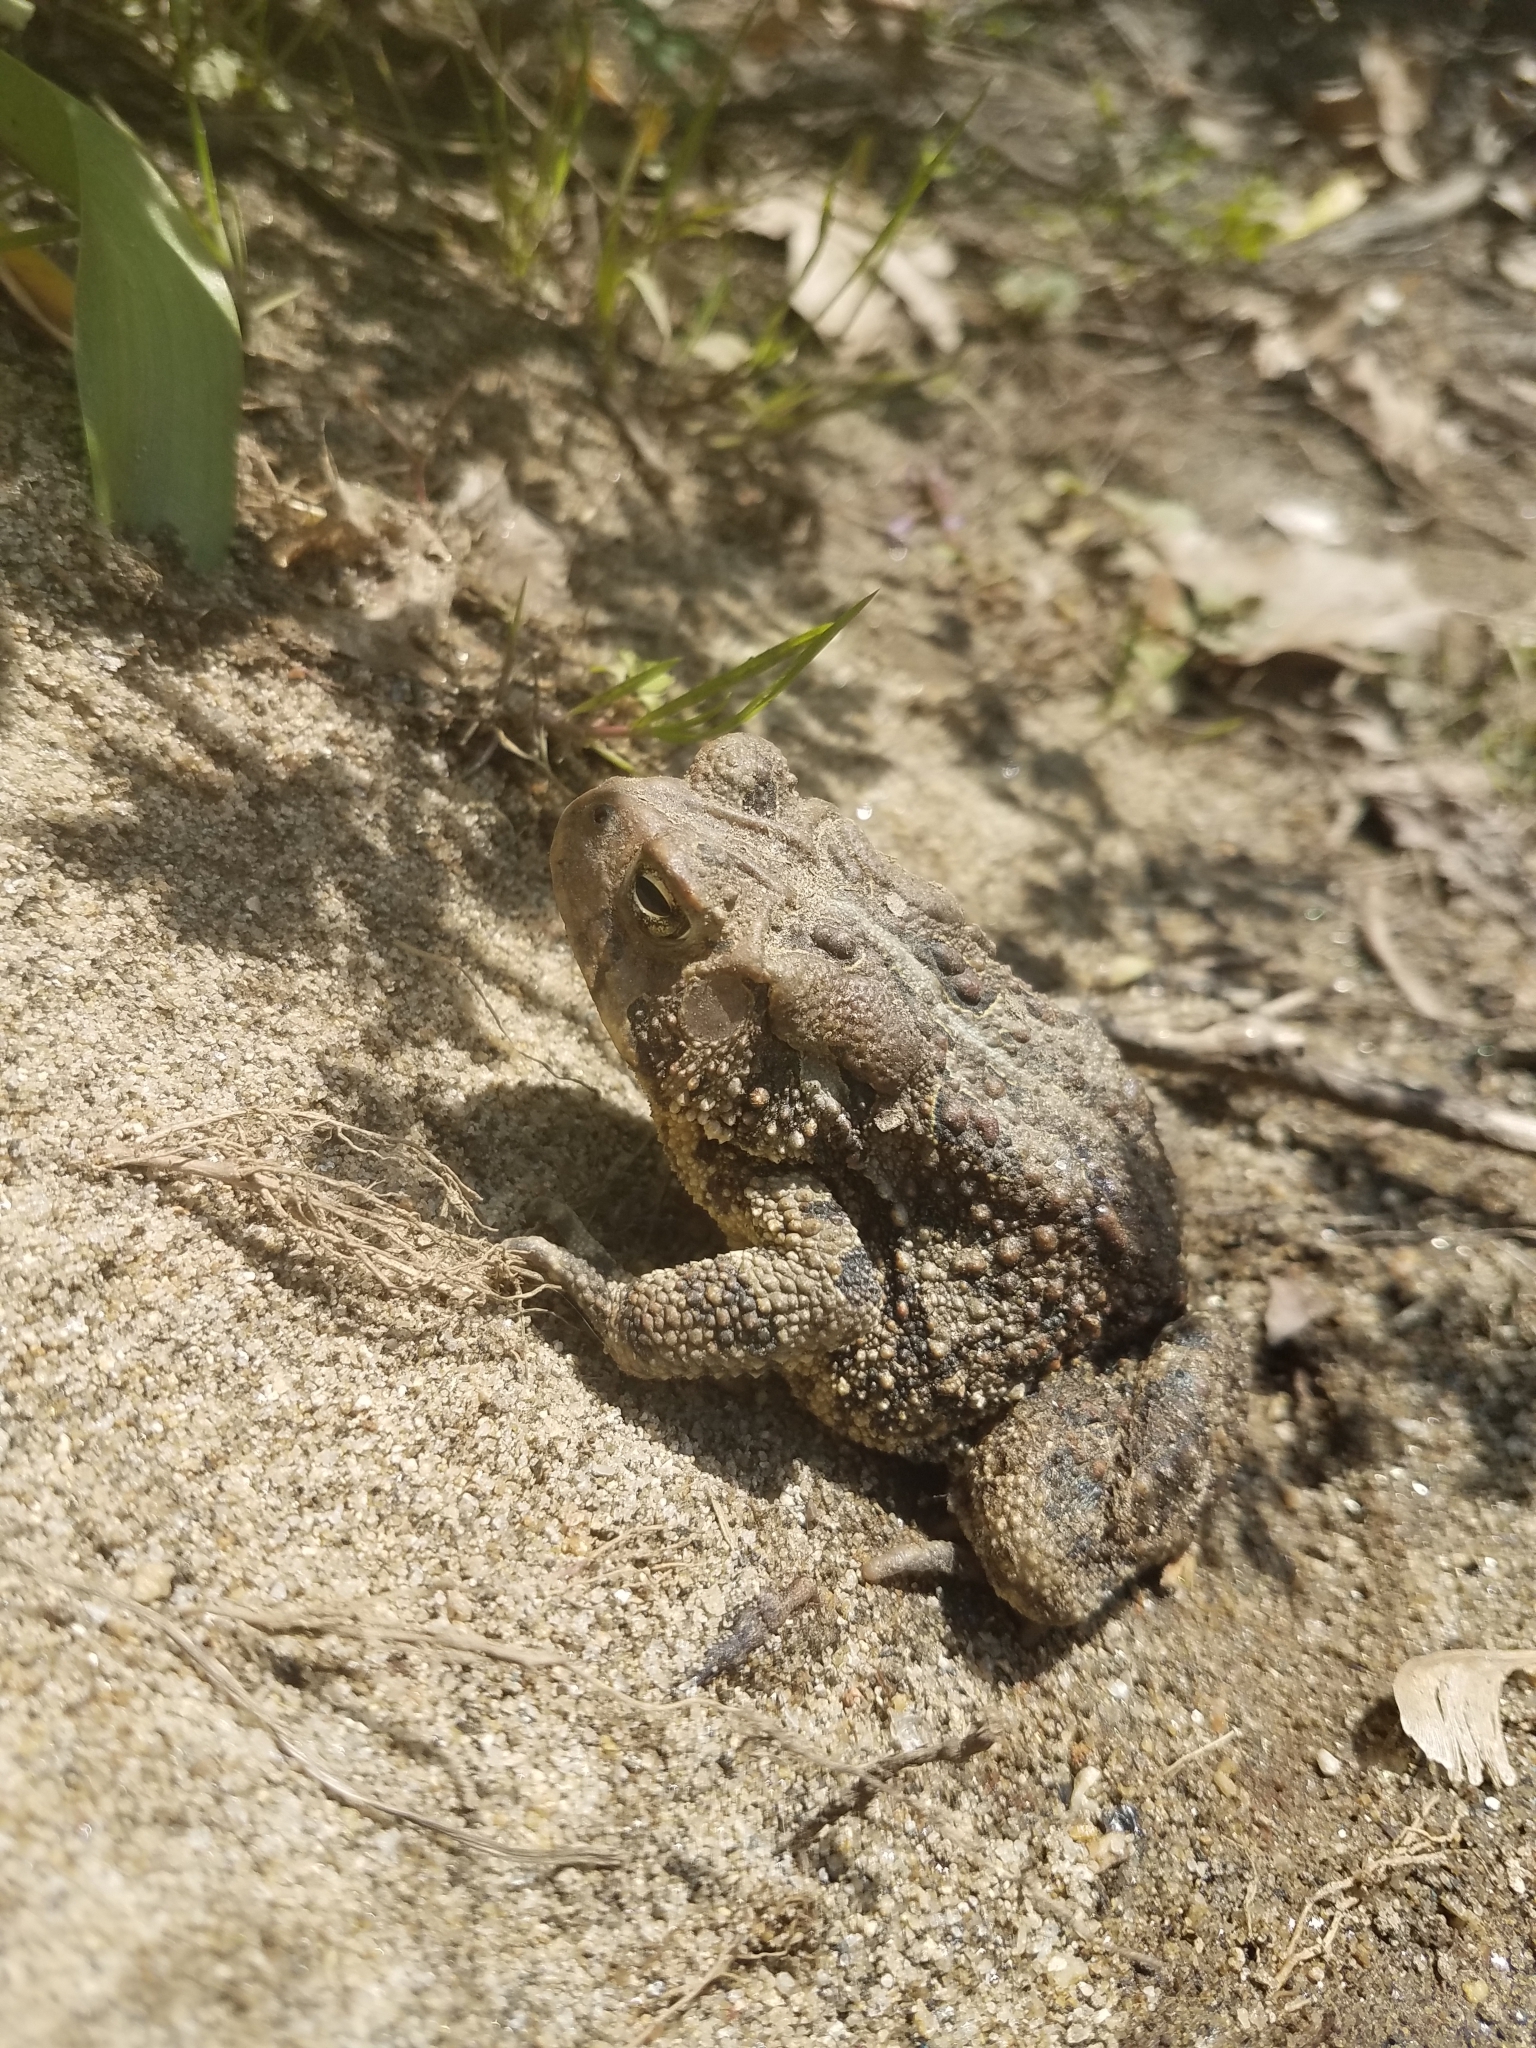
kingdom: Animalia
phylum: Chordata
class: Amphibia
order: Anura
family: Bufonidae
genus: Anaxyrus
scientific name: Anaxyrus americanus
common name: American toad
